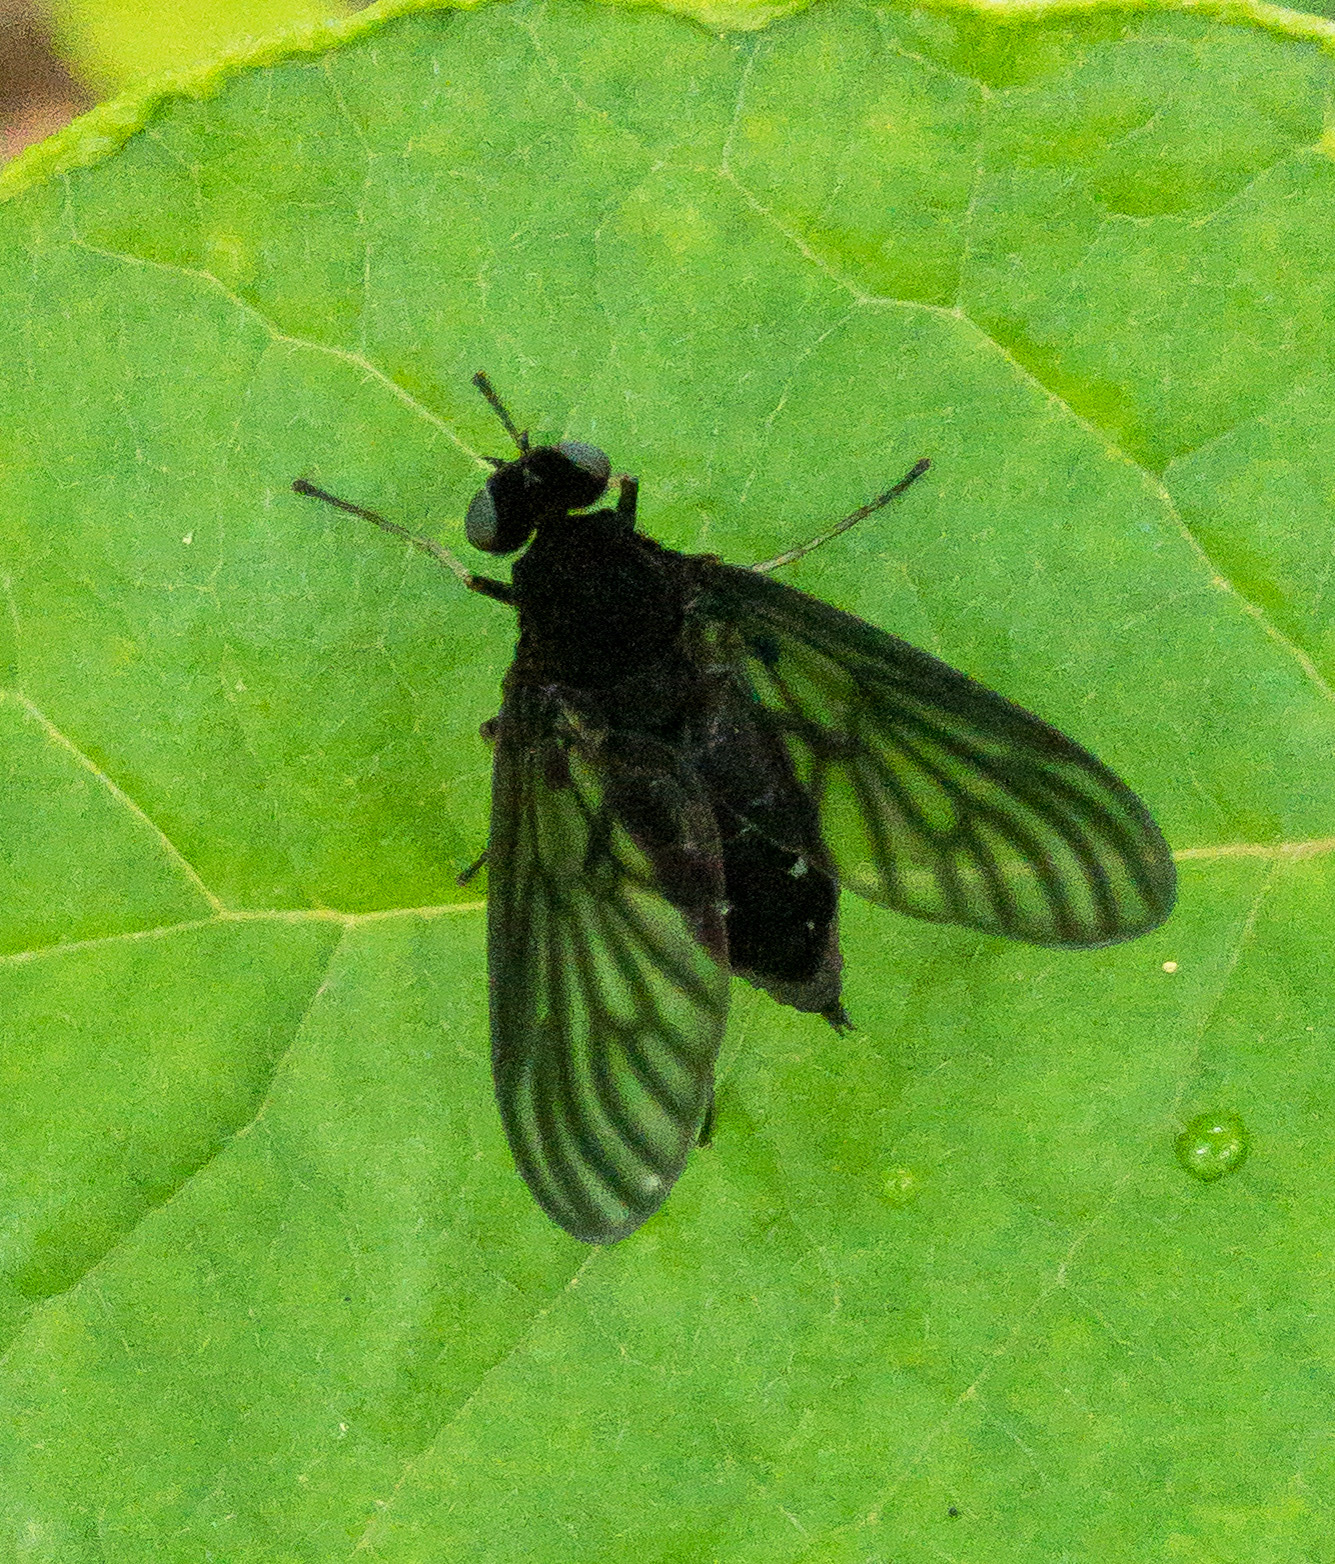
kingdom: Animalia
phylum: Arthropoda
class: Insecta
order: Diptera
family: Rhagionidae
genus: Chrysopilus
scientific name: Chrysopilus connexus
